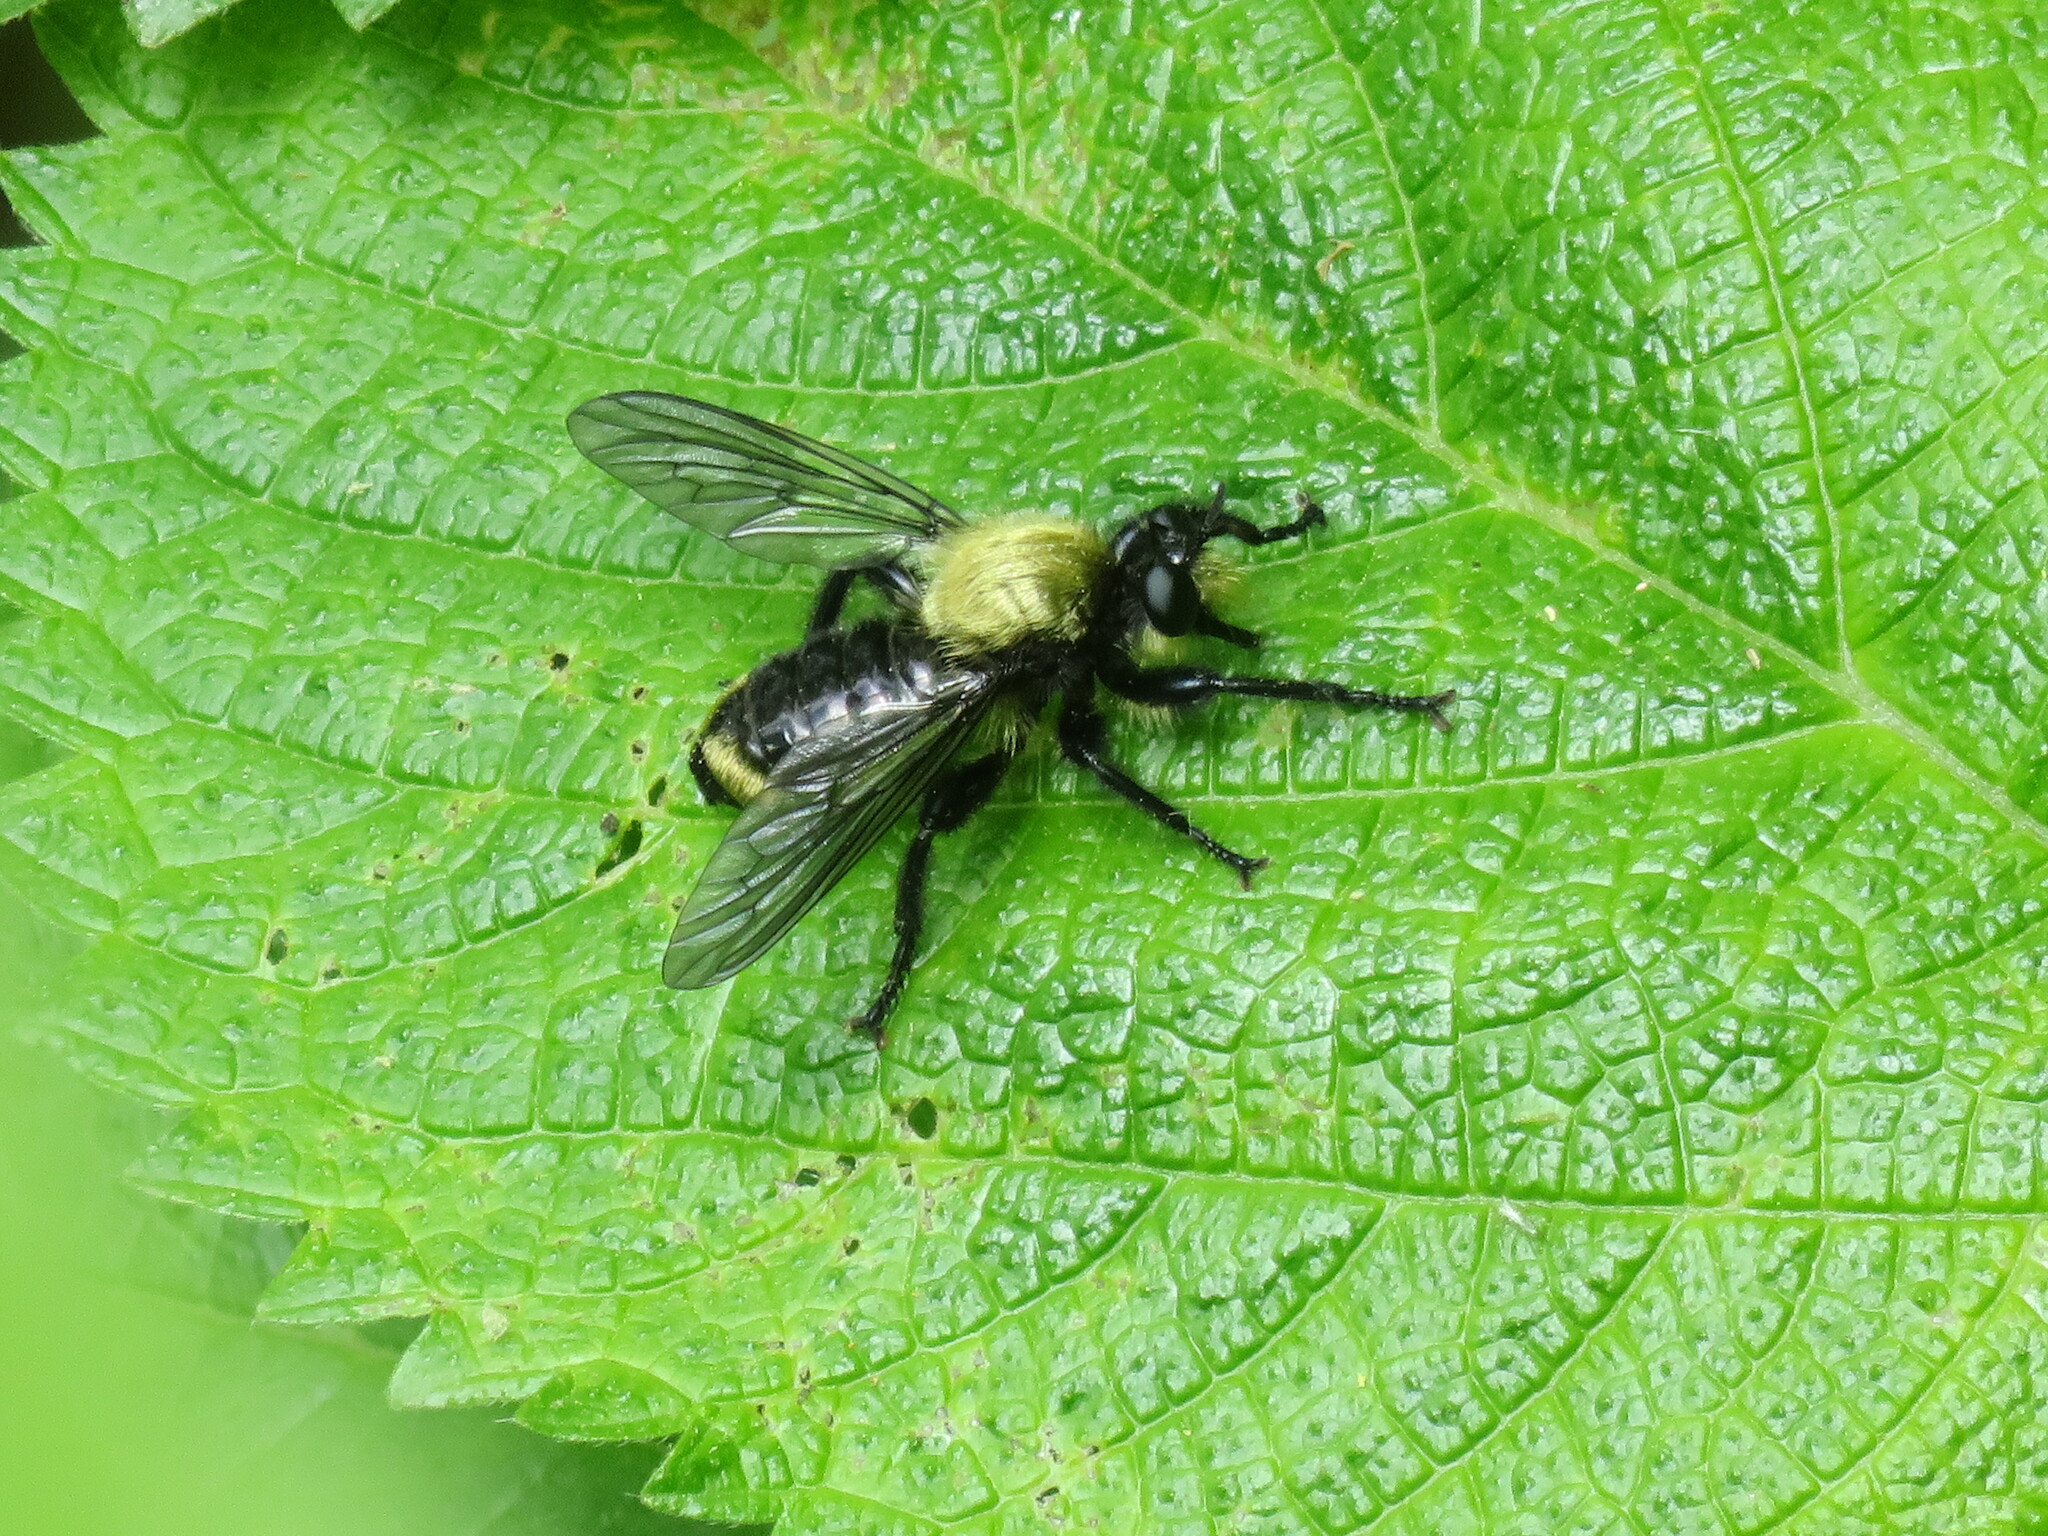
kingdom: Animalia
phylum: Arthropoda
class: Insecta
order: Diptera
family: Asilidae
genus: Laphria
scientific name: Laphria divisor
